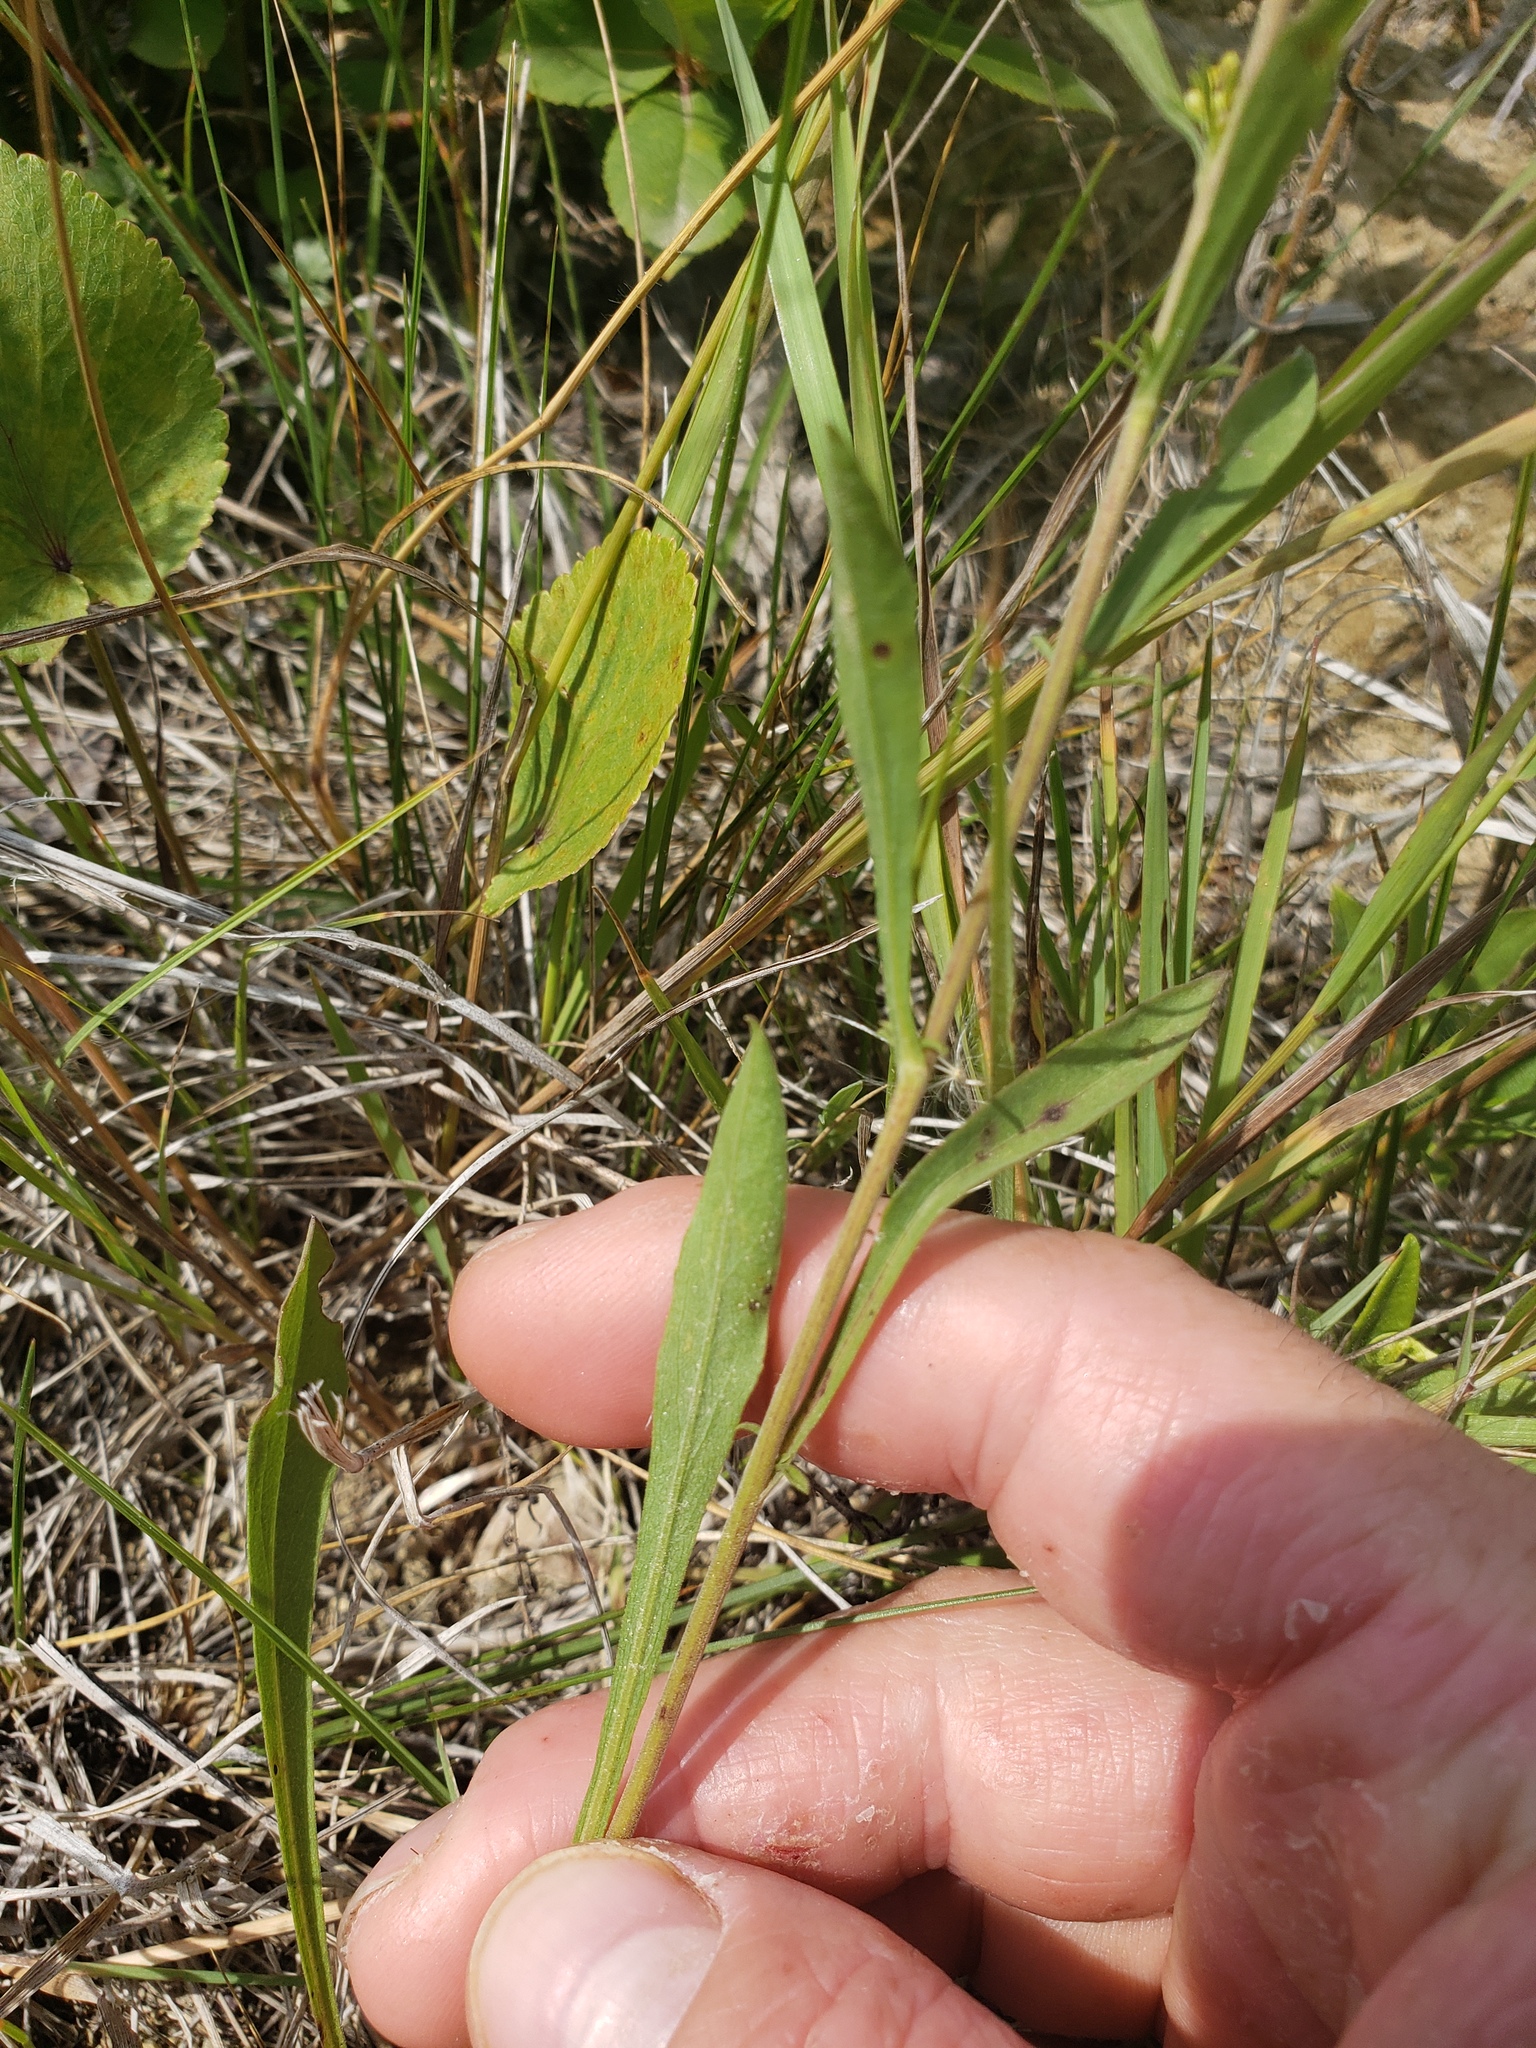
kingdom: Plantae
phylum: Tracheophyta
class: Magnoliopsida
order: Asterales
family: Asteraceae
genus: Solidago
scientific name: Solidago nemoralis
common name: Grey goldenrod
